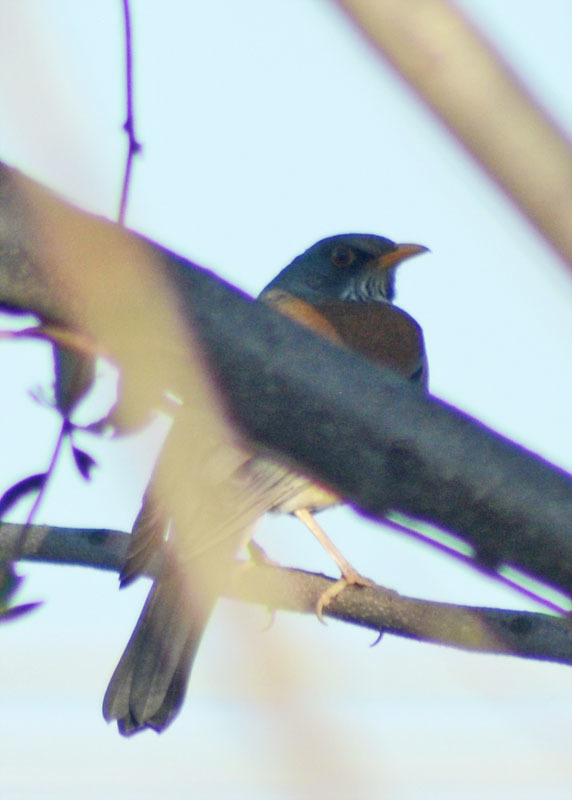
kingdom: Animalia
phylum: Chordata
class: Aves
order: Passeriformes
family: Turdidae
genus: Turdus
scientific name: Turdus rufopalliatus
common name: Rufous-backed robin
